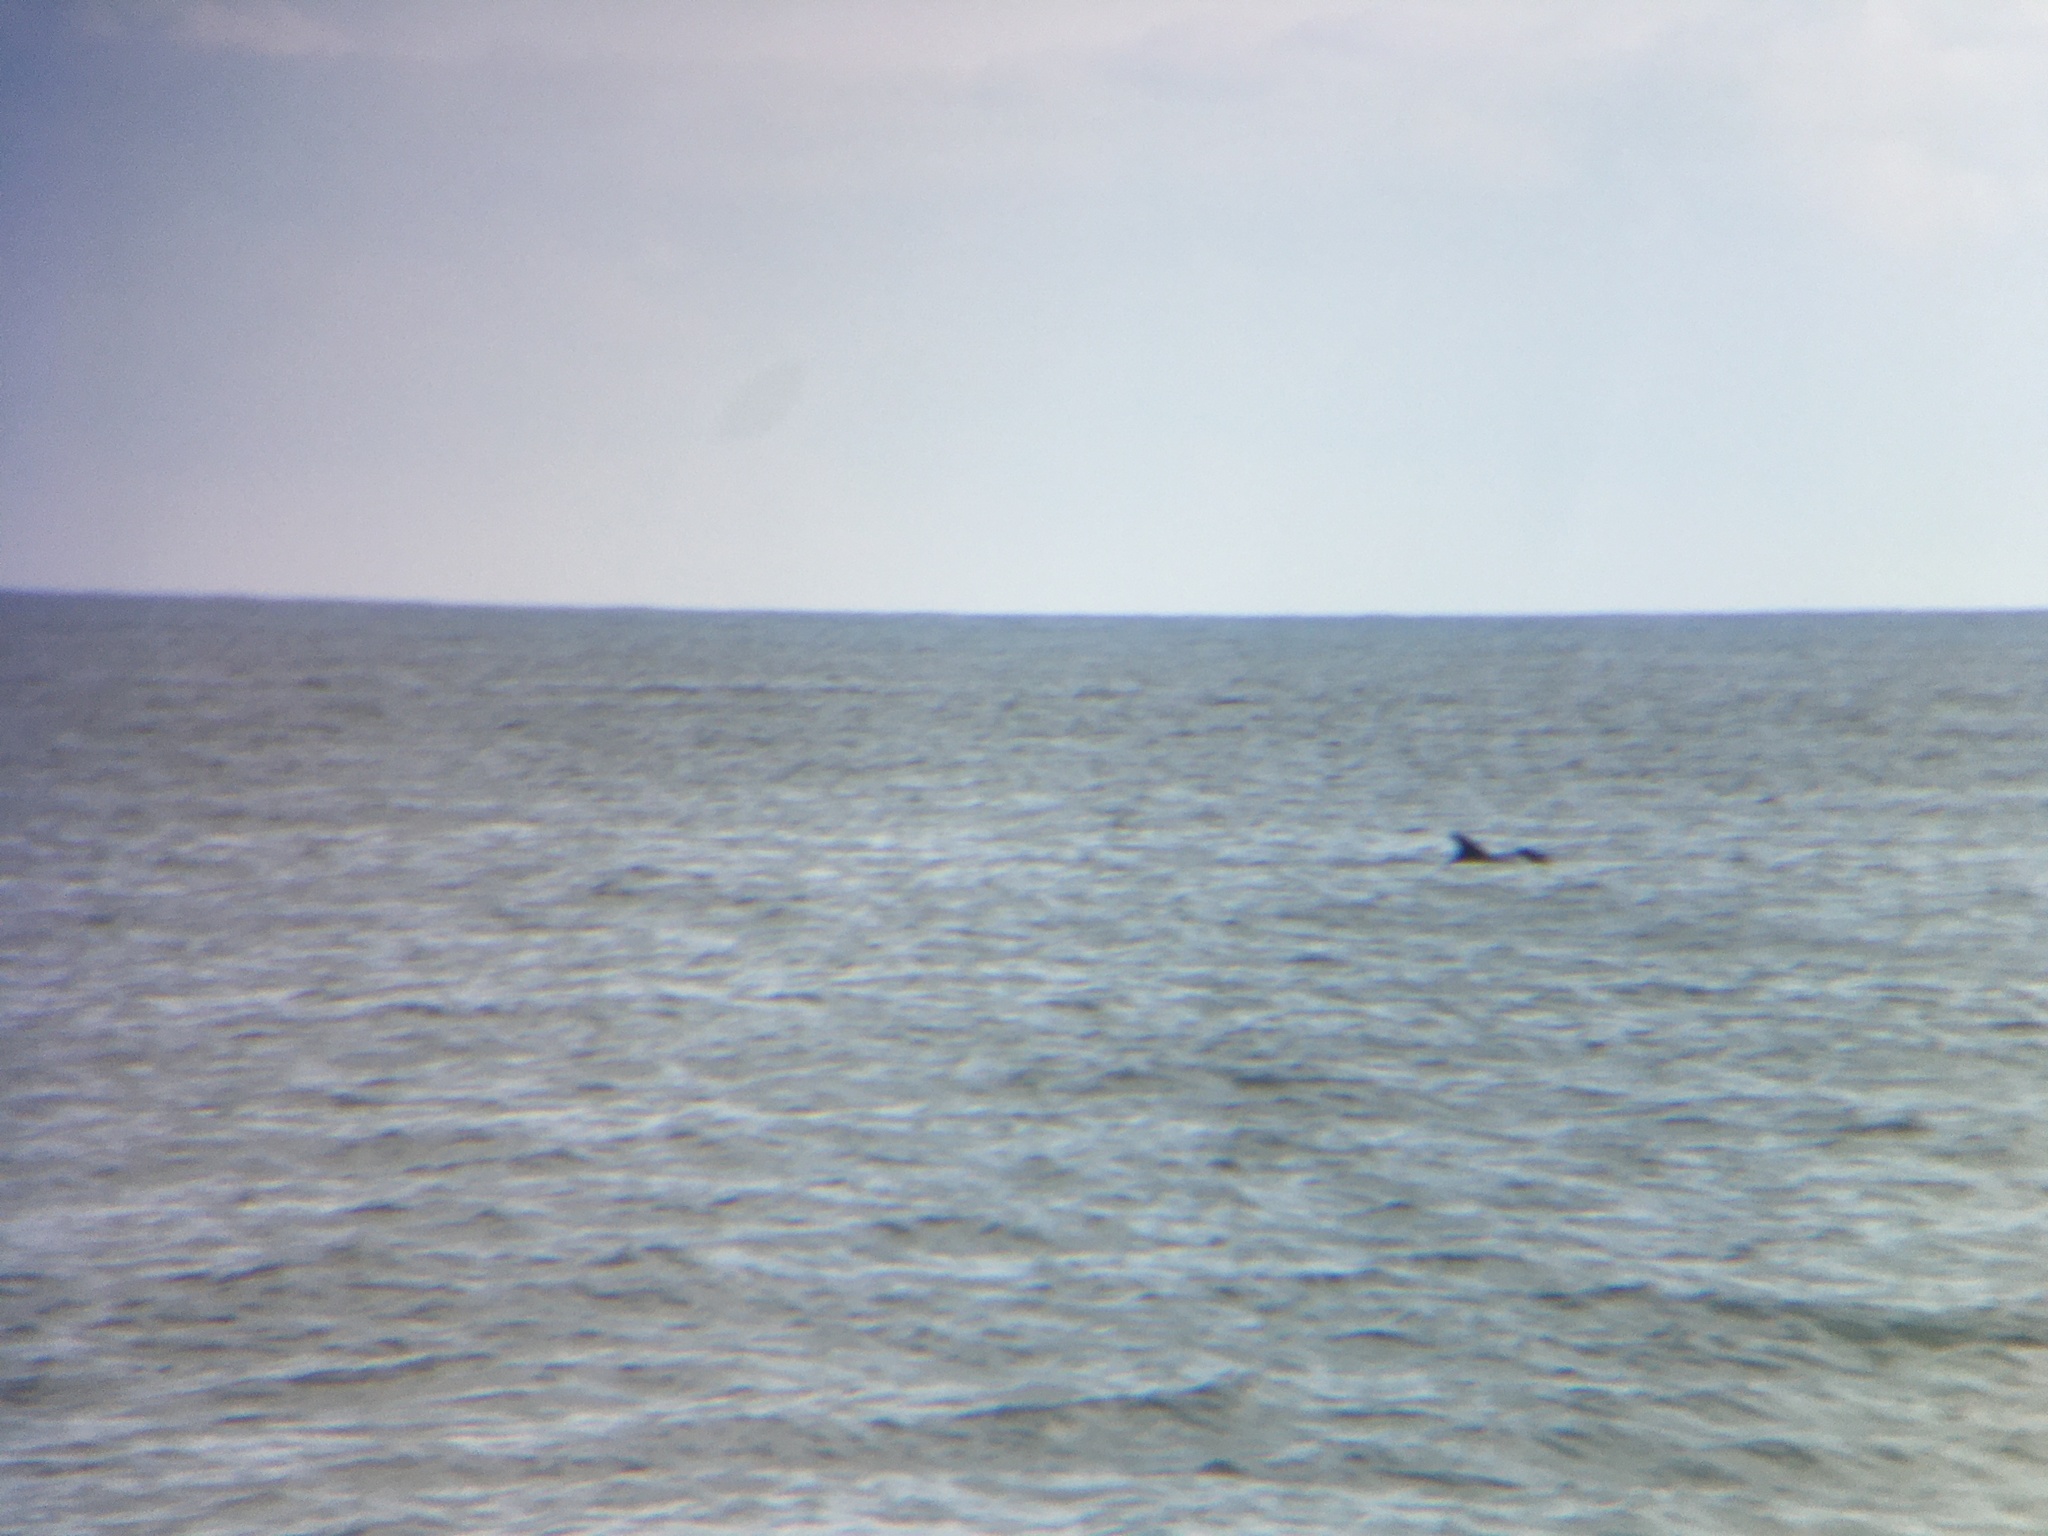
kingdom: Animalia
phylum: Chordata
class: Mammalia
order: Cetacea
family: Delphinidae
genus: Tursiops
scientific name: Tursiops truncatus
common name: Bottlenose dolphin
